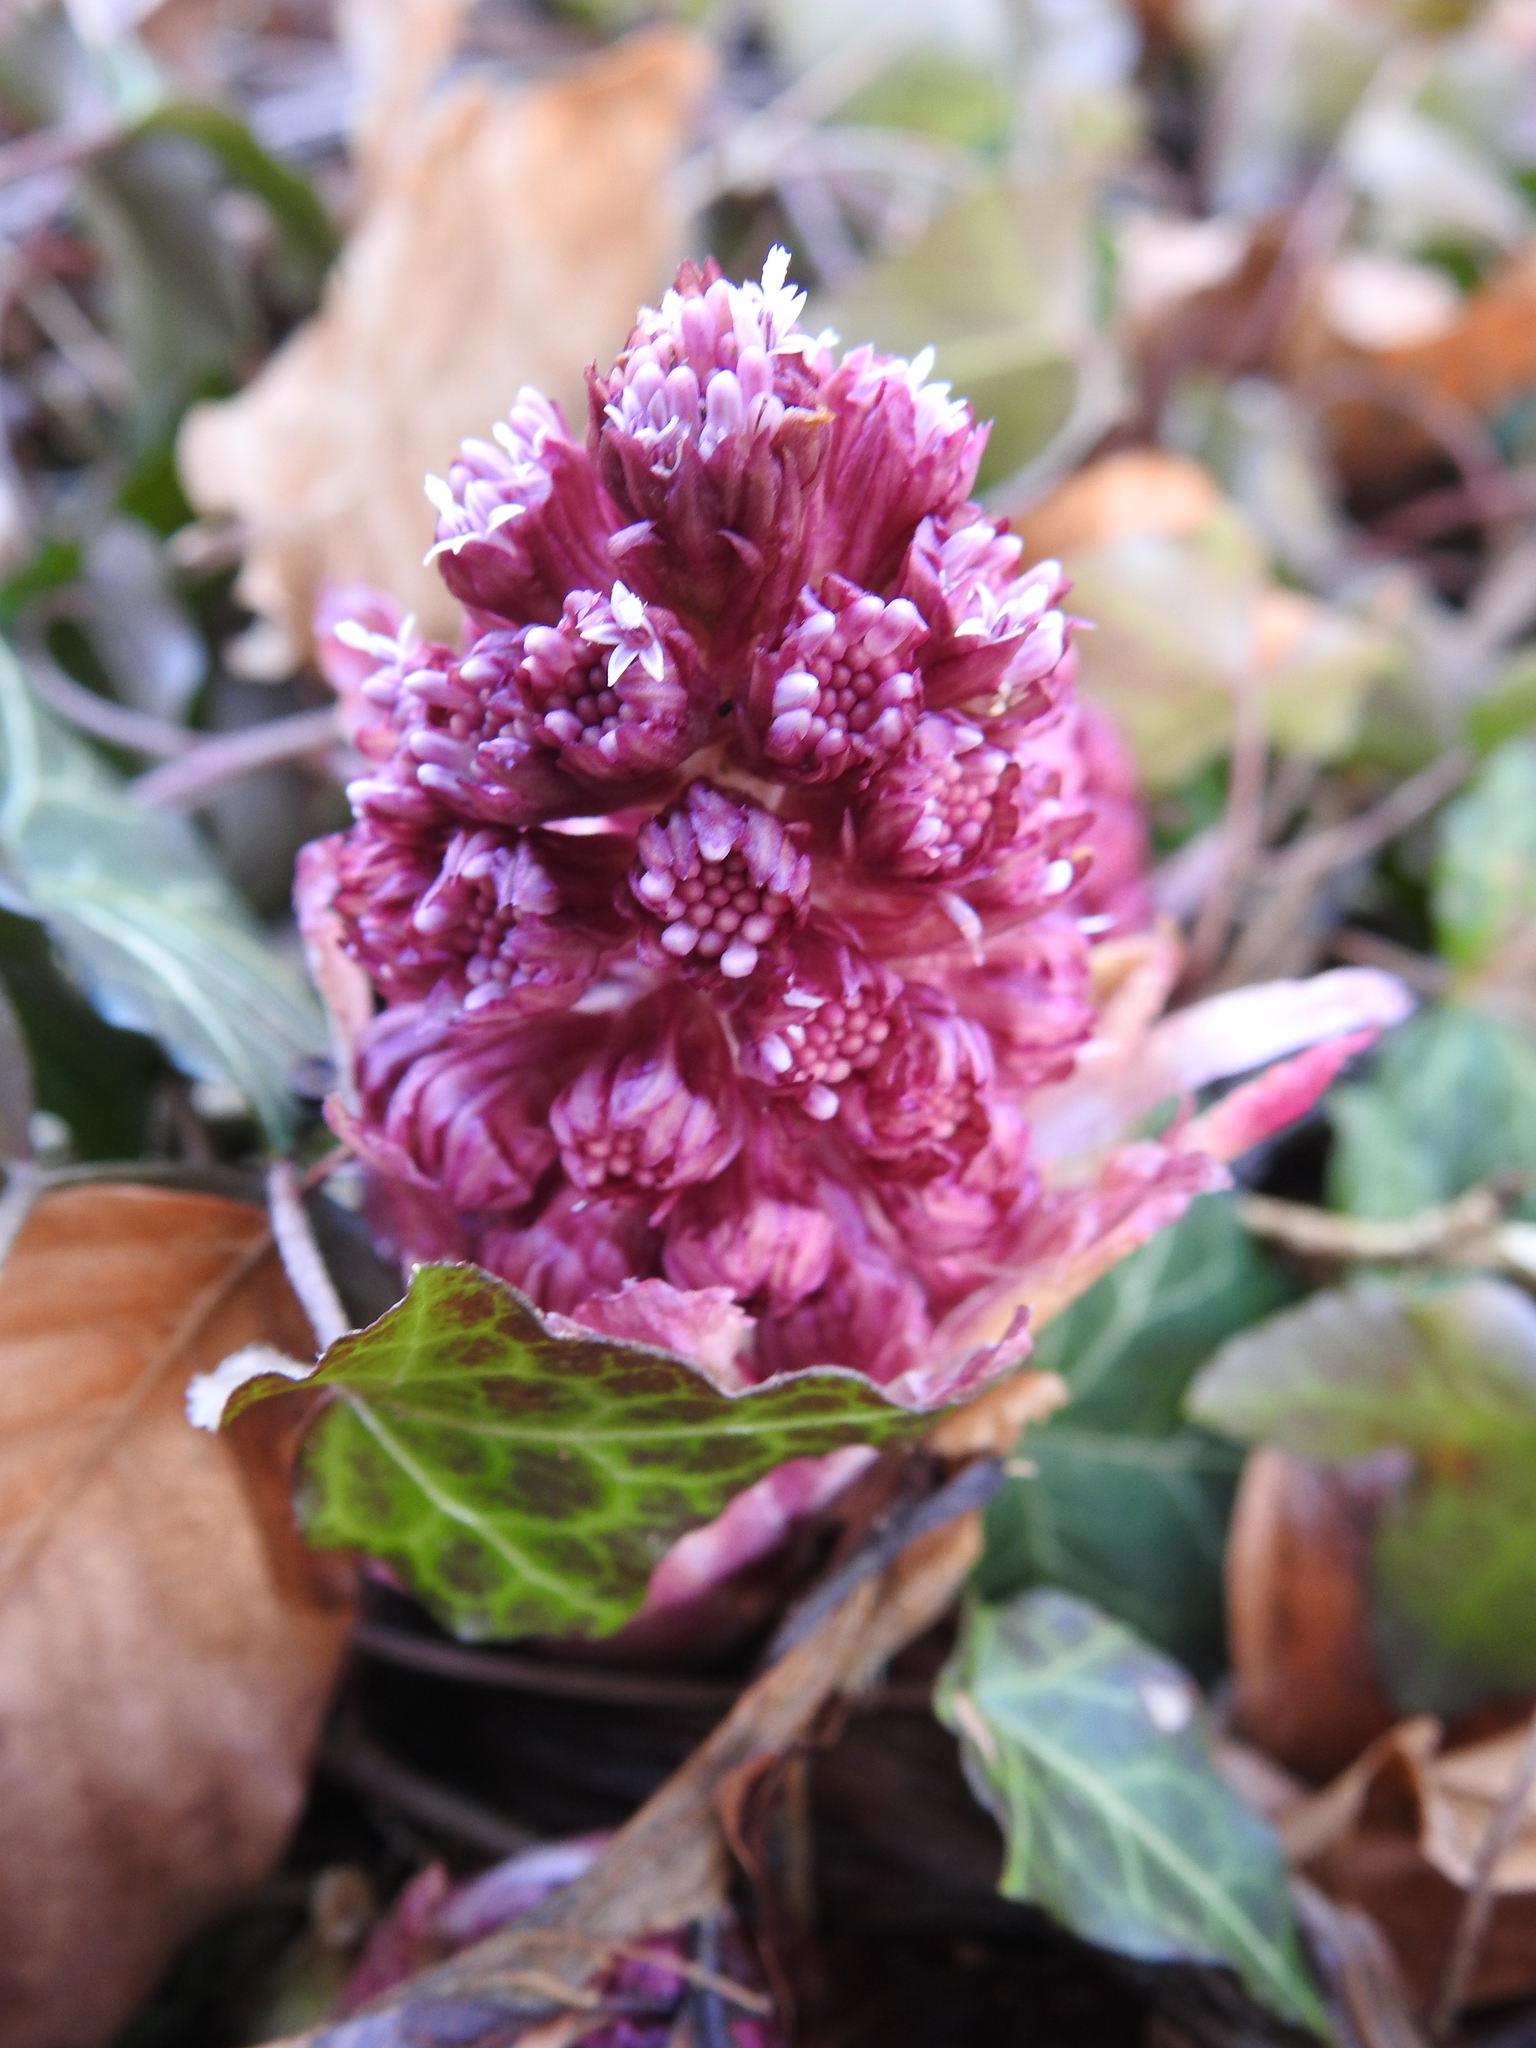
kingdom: Plantae
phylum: Tracheophyta
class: Magnoliopsida
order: Asterales
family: Asteraceae
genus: Petasites
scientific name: Petasites hybridus
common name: Butterbur
